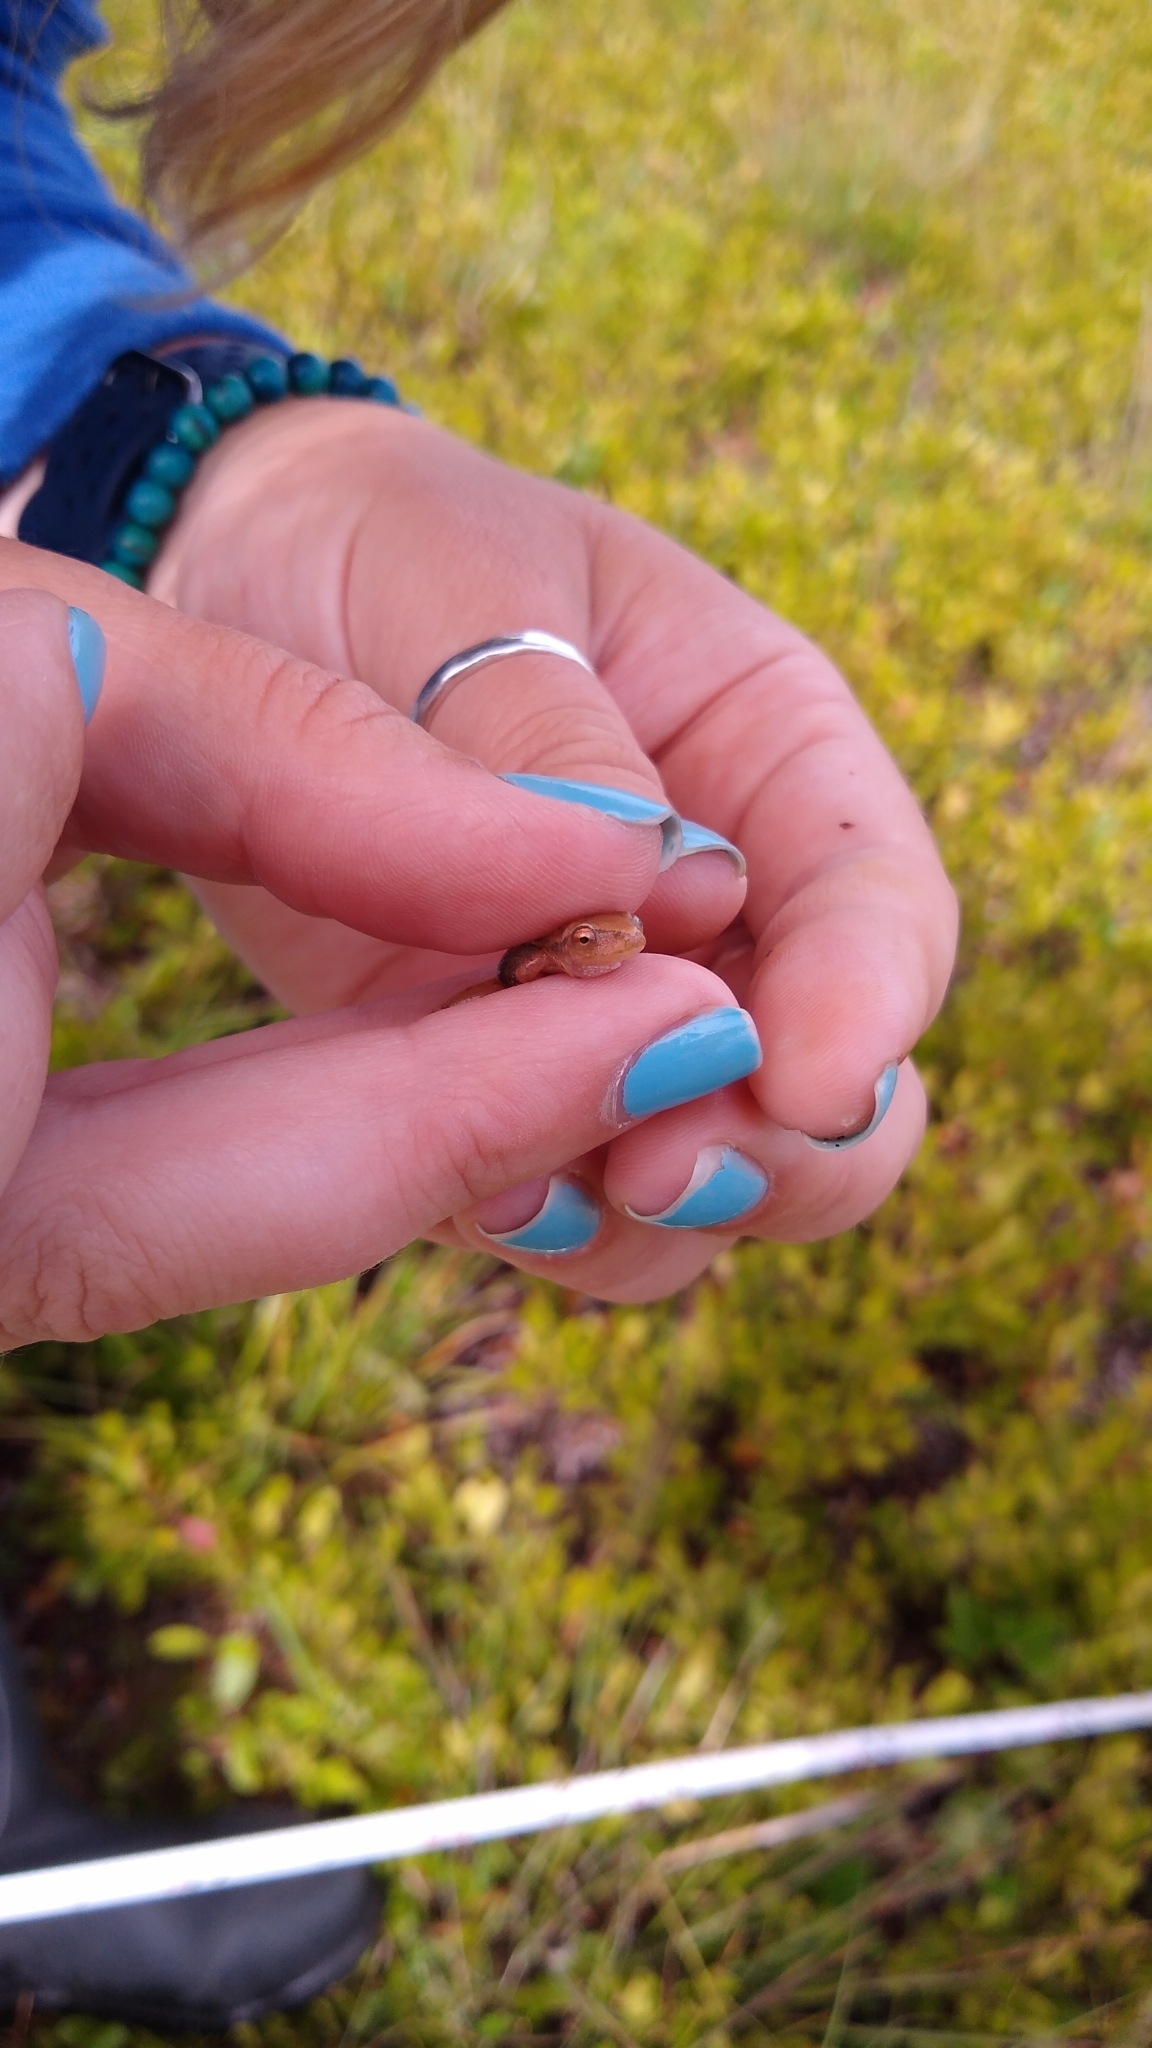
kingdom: Animalia
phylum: Chordata
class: Amphibia
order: Anura
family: Hylidae
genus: Pseudacris
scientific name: Pseudacris crucifer
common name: Spring peeper
